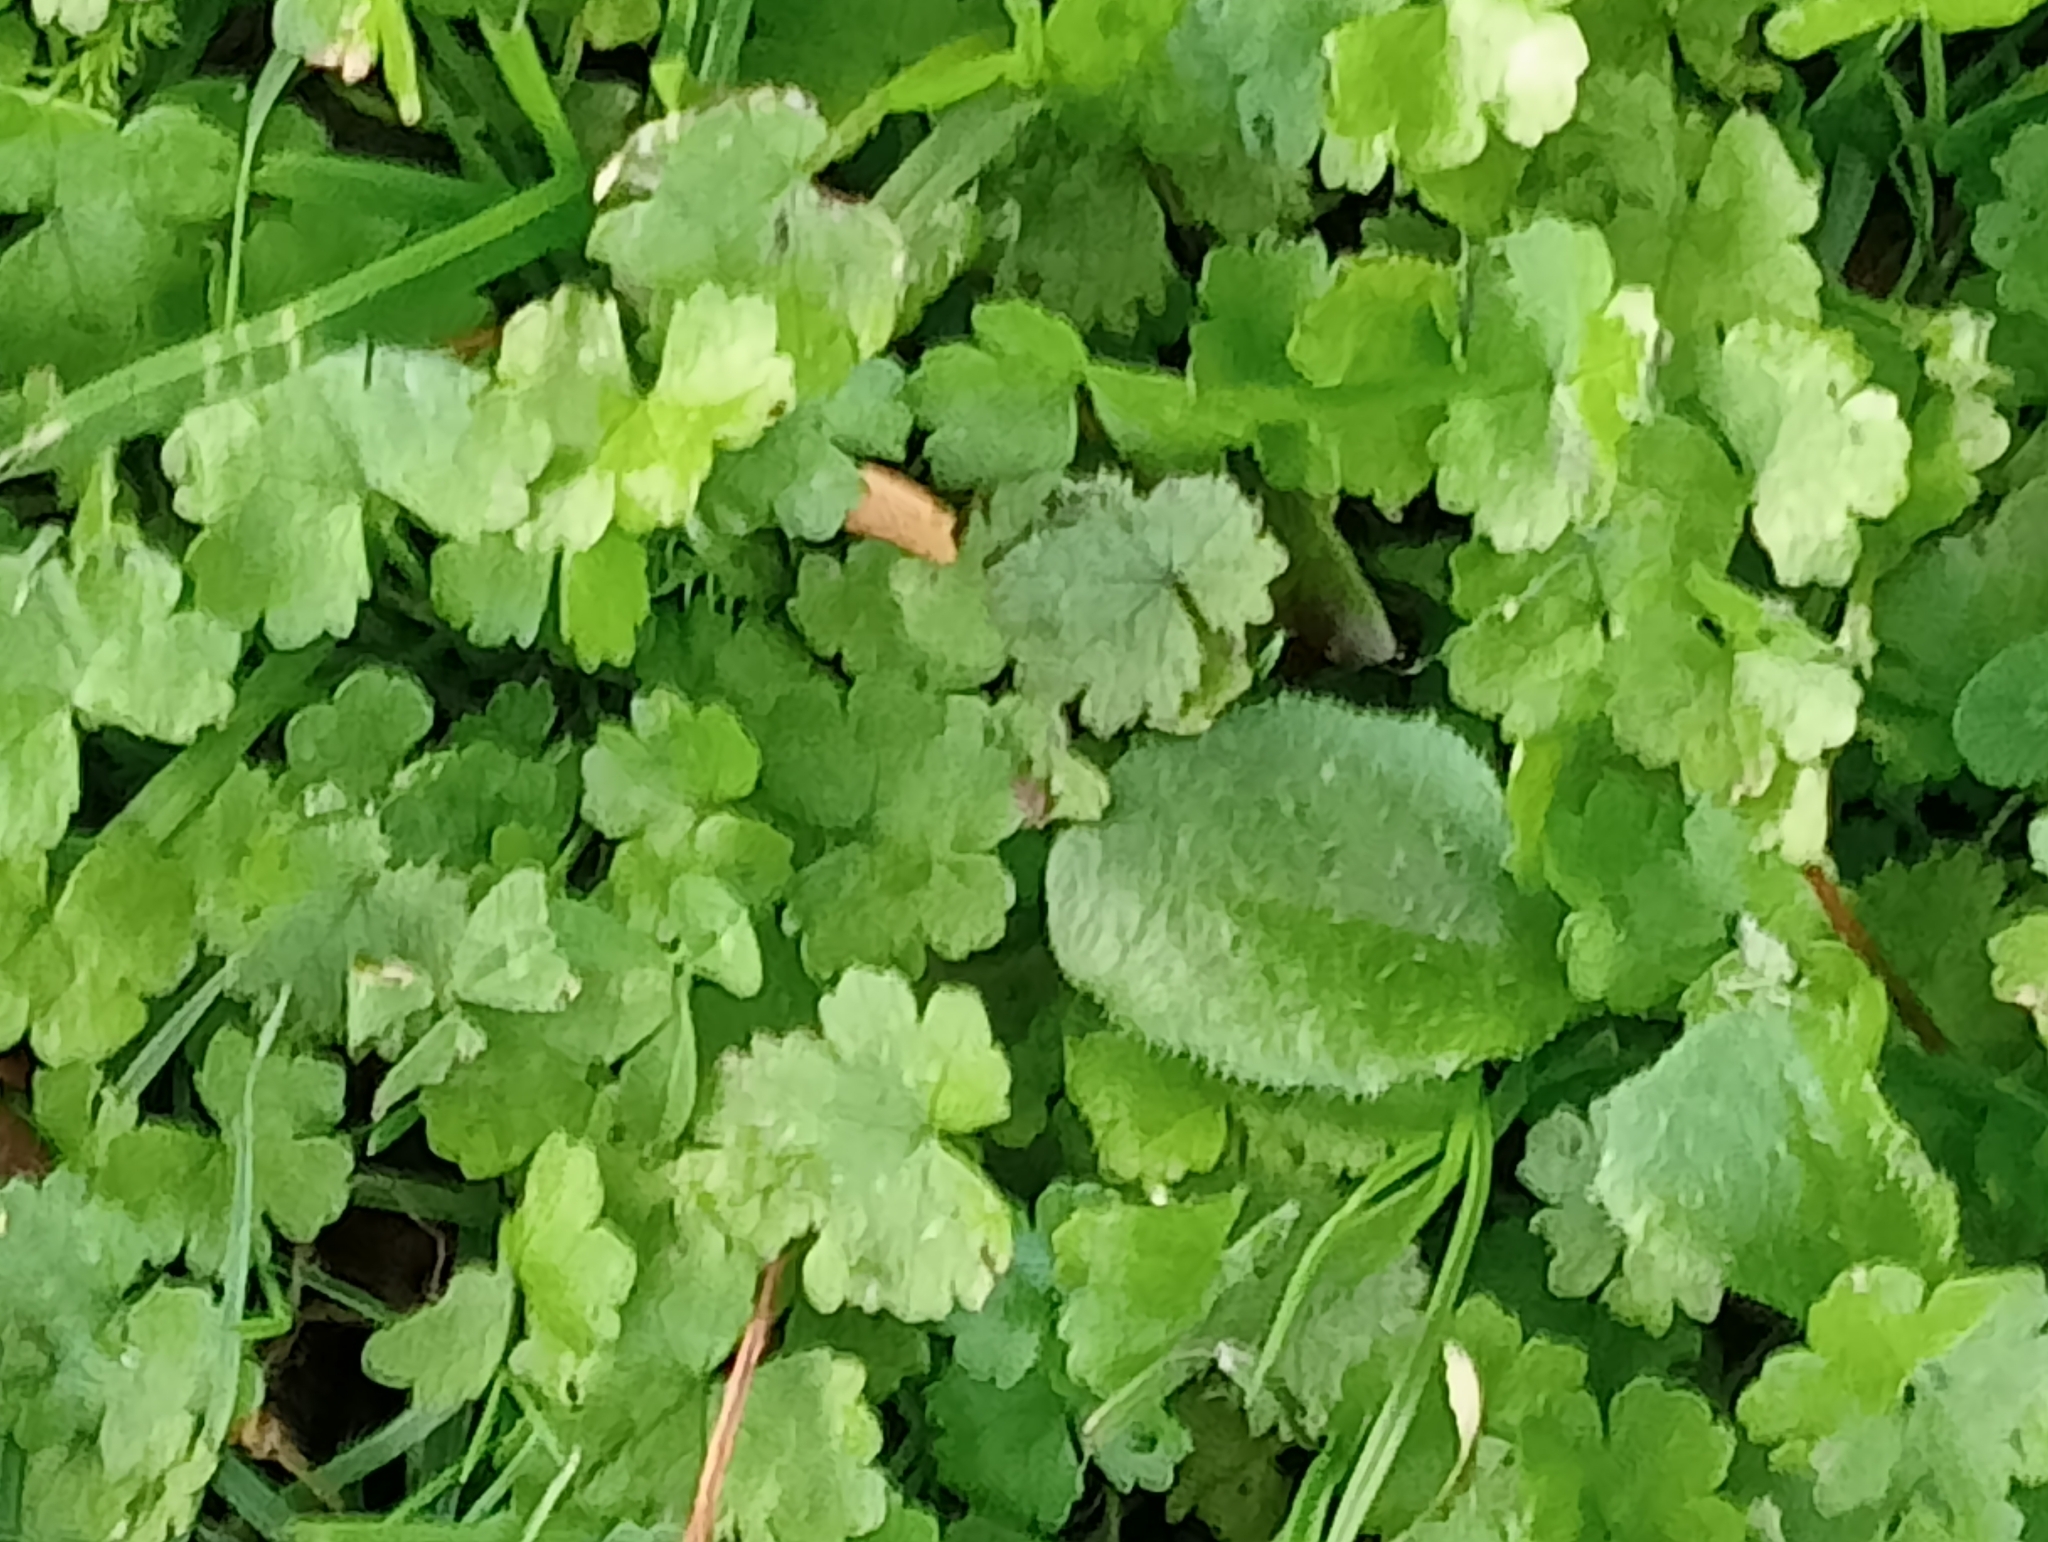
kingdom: Plantae
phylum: Tracheophyta
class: Magnoliopsida
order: Apiales
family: Araliaceae
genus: Hydrocotyle
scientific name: Hydrocotyle heteromeria
